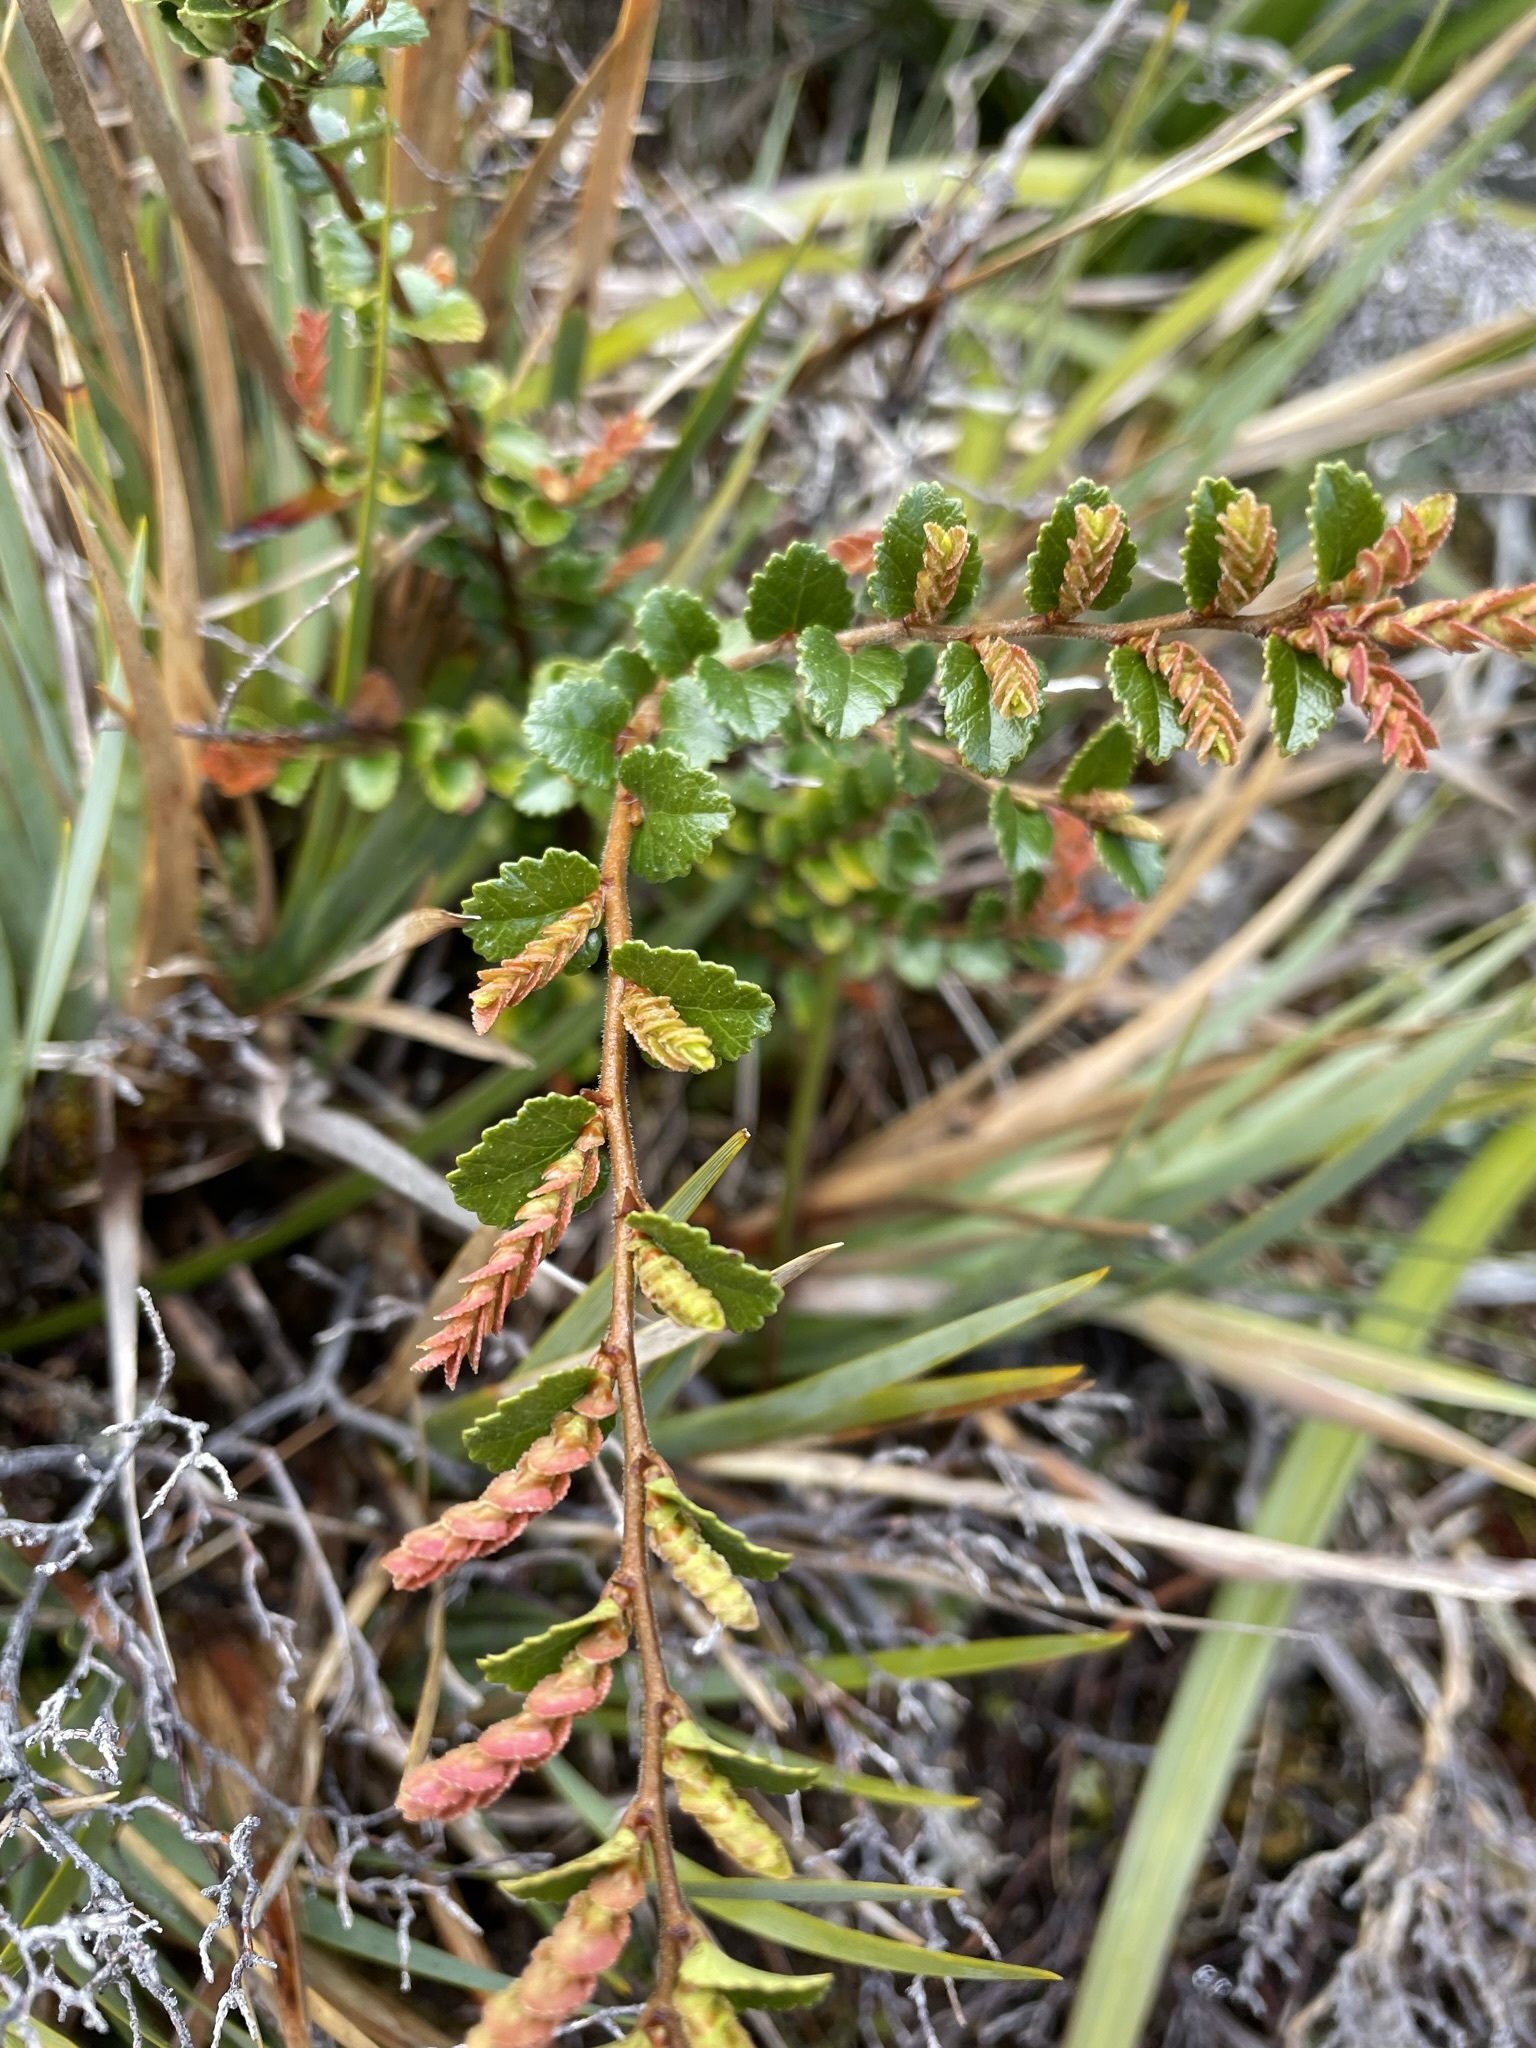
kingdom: Plantae
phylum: Tracheophyta
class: Magnoliopsida
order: Fagales
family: Nothofagaceae
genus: Nothofagus
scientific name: Nothofagus cunninghamii
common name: Myrtle beech
